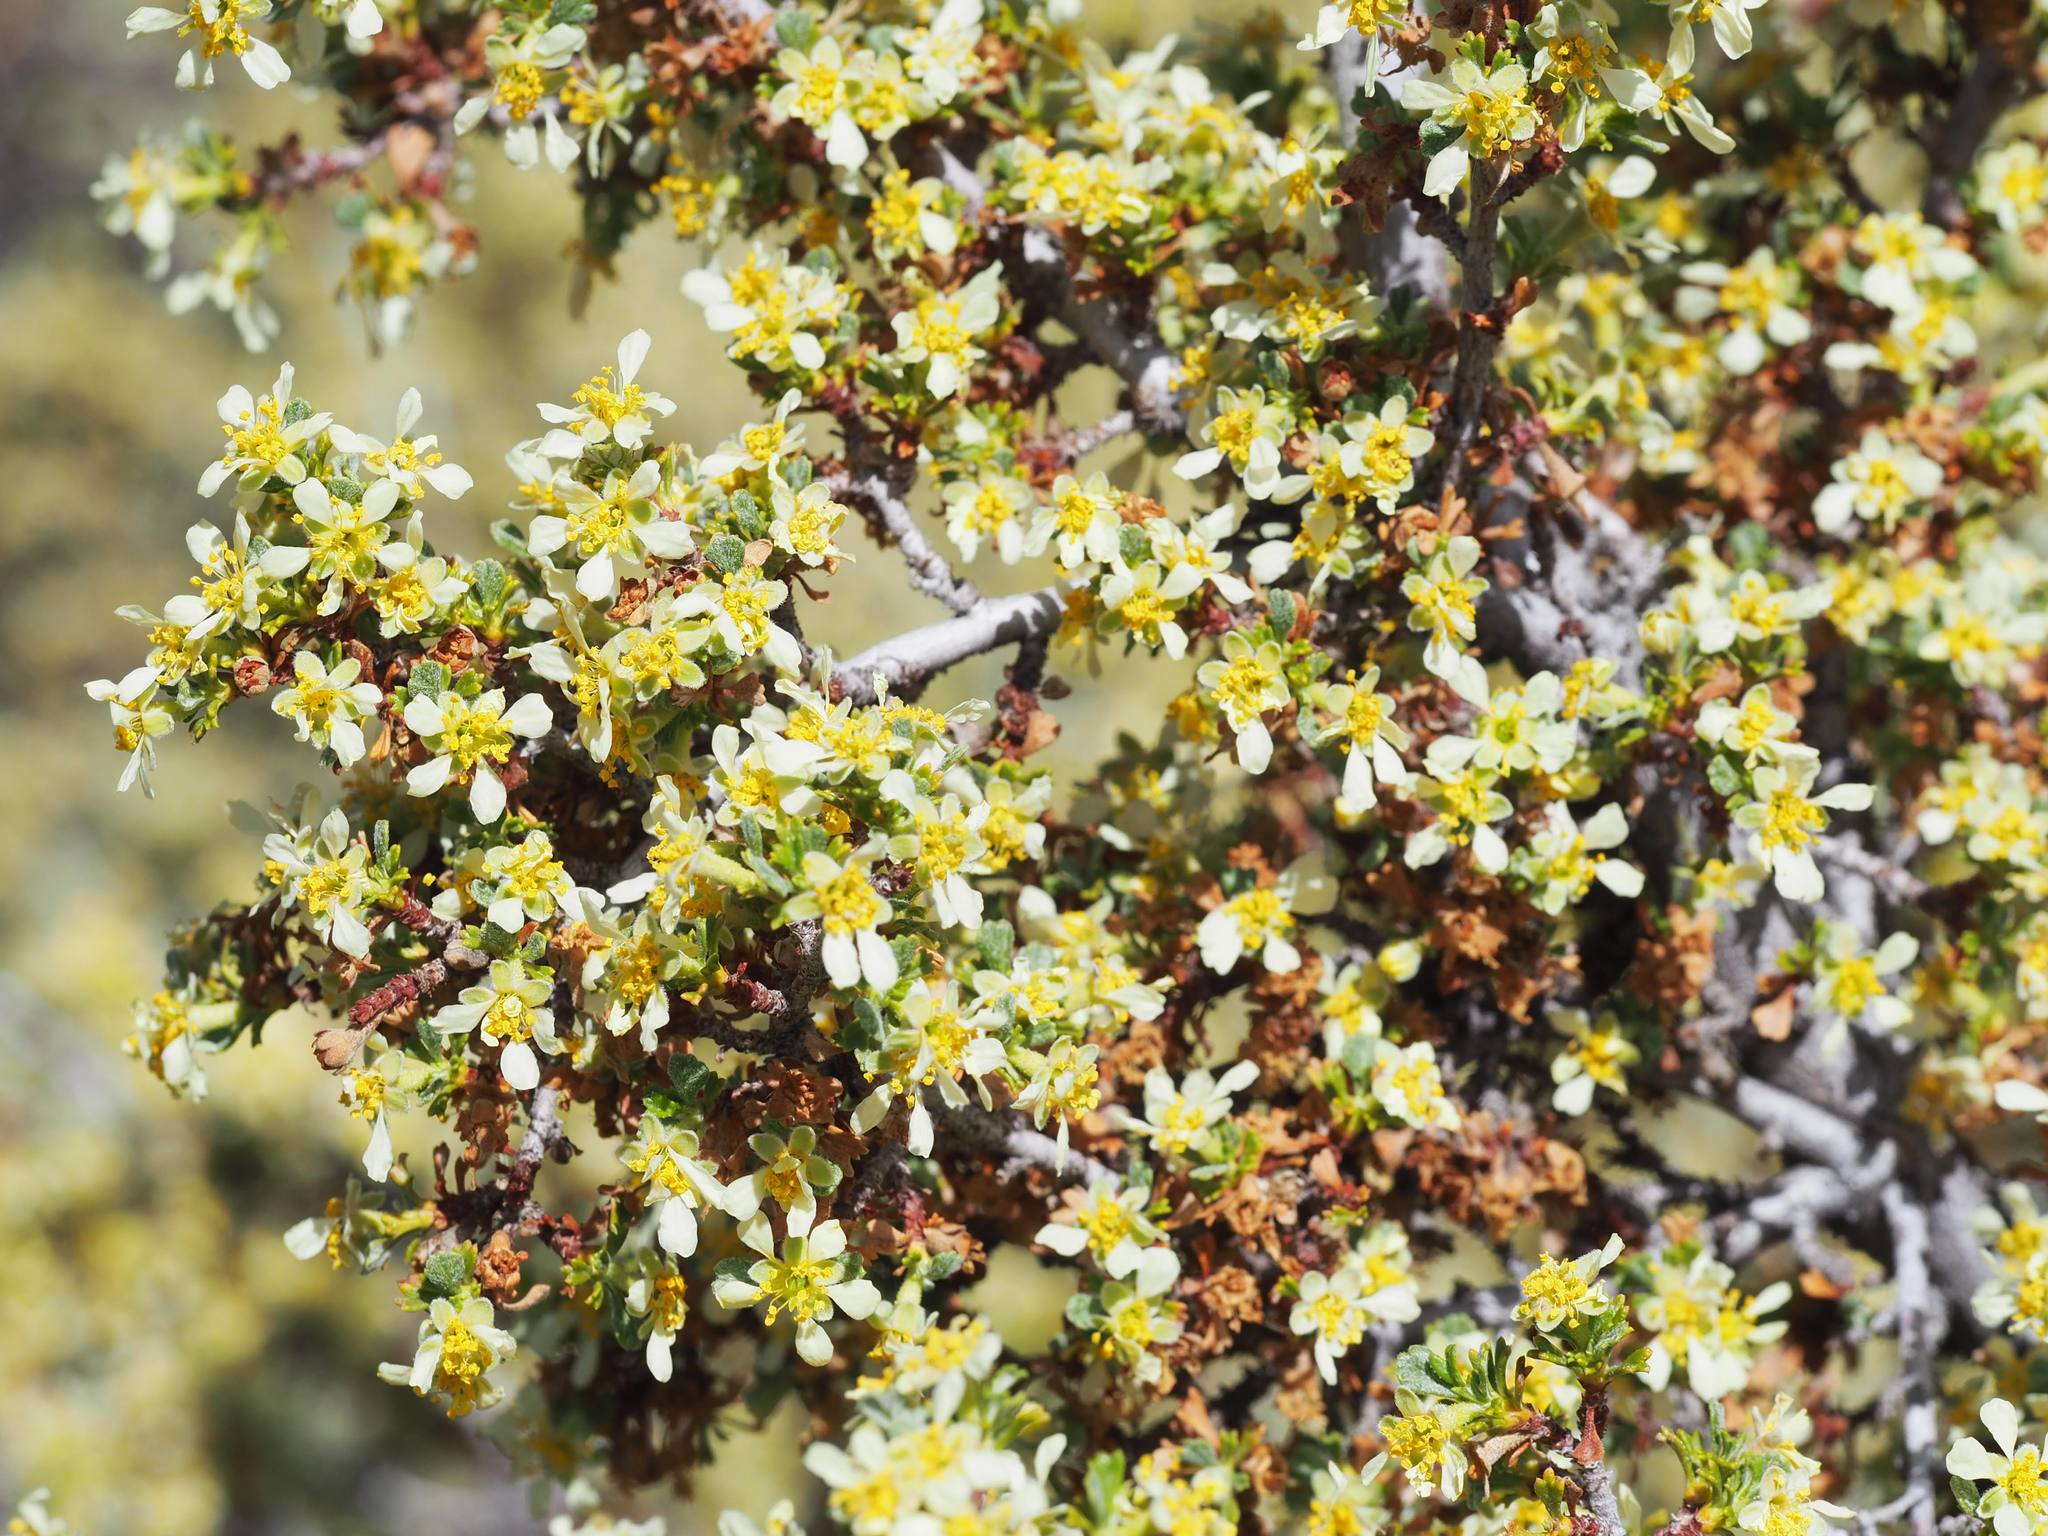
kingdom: Plantae
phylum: Tracheophyta
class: Magnoliopsida
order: Rosales
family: Rosaceae
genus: Purshia
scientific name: Purshia tridentata
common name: Antelope bitterbrush
